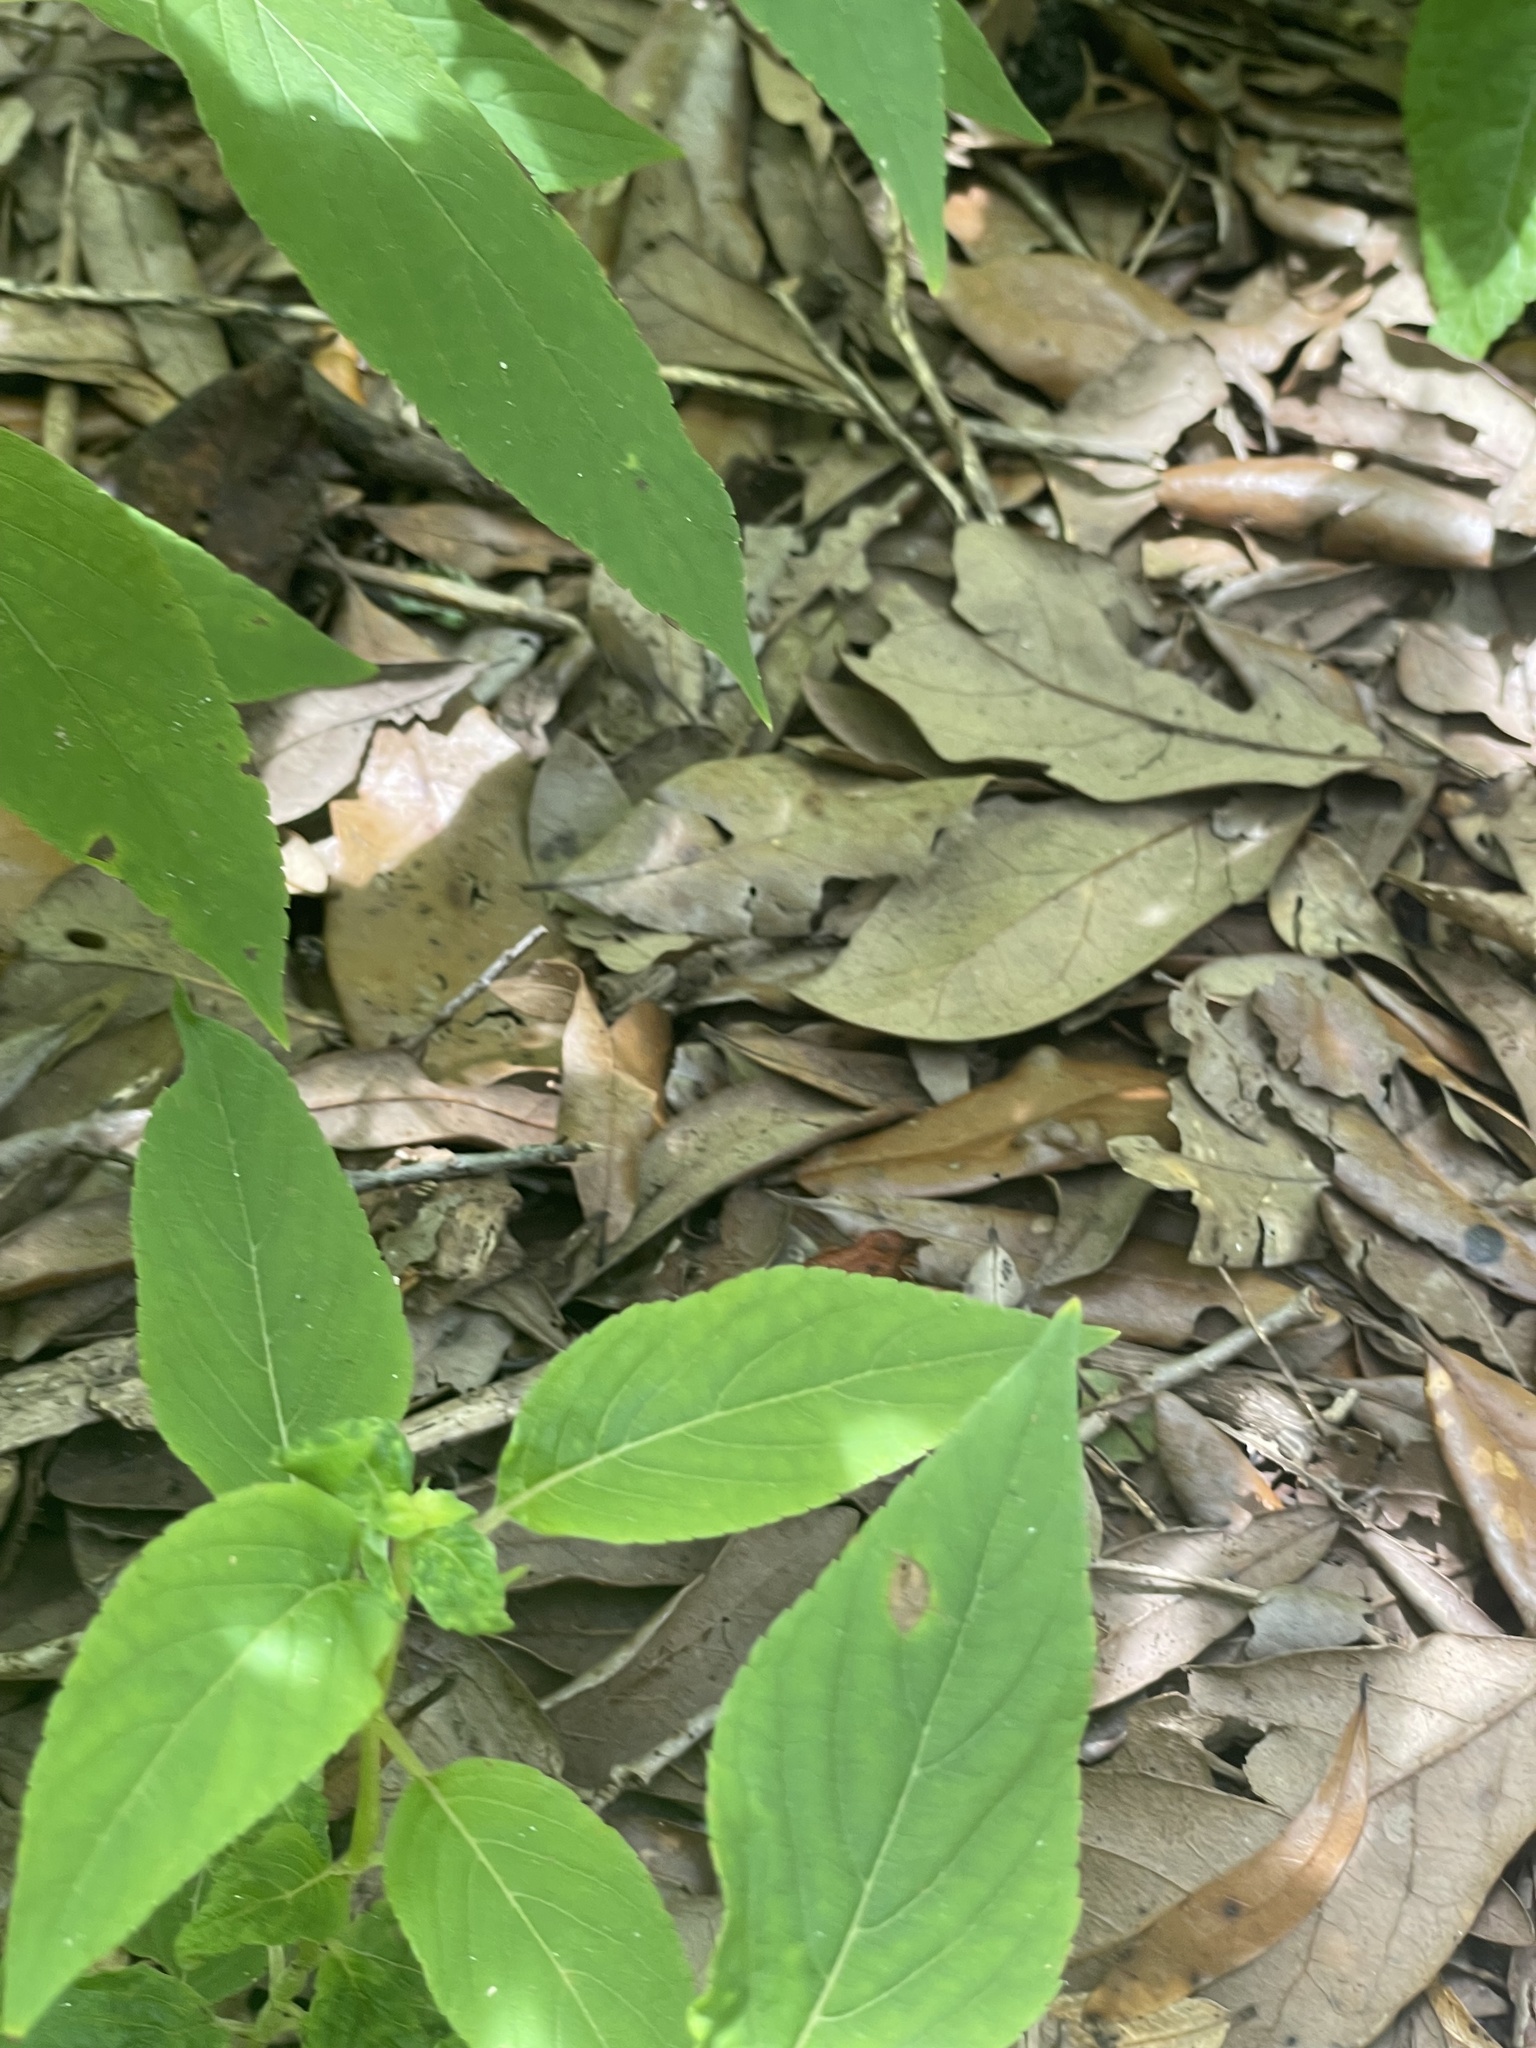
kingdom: Animalia
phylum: Chordata
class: Amphibia
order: Anura
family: Bufonidae
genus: Anaxyrus
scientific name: Anaxyrus terrestris
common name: Southern toad
